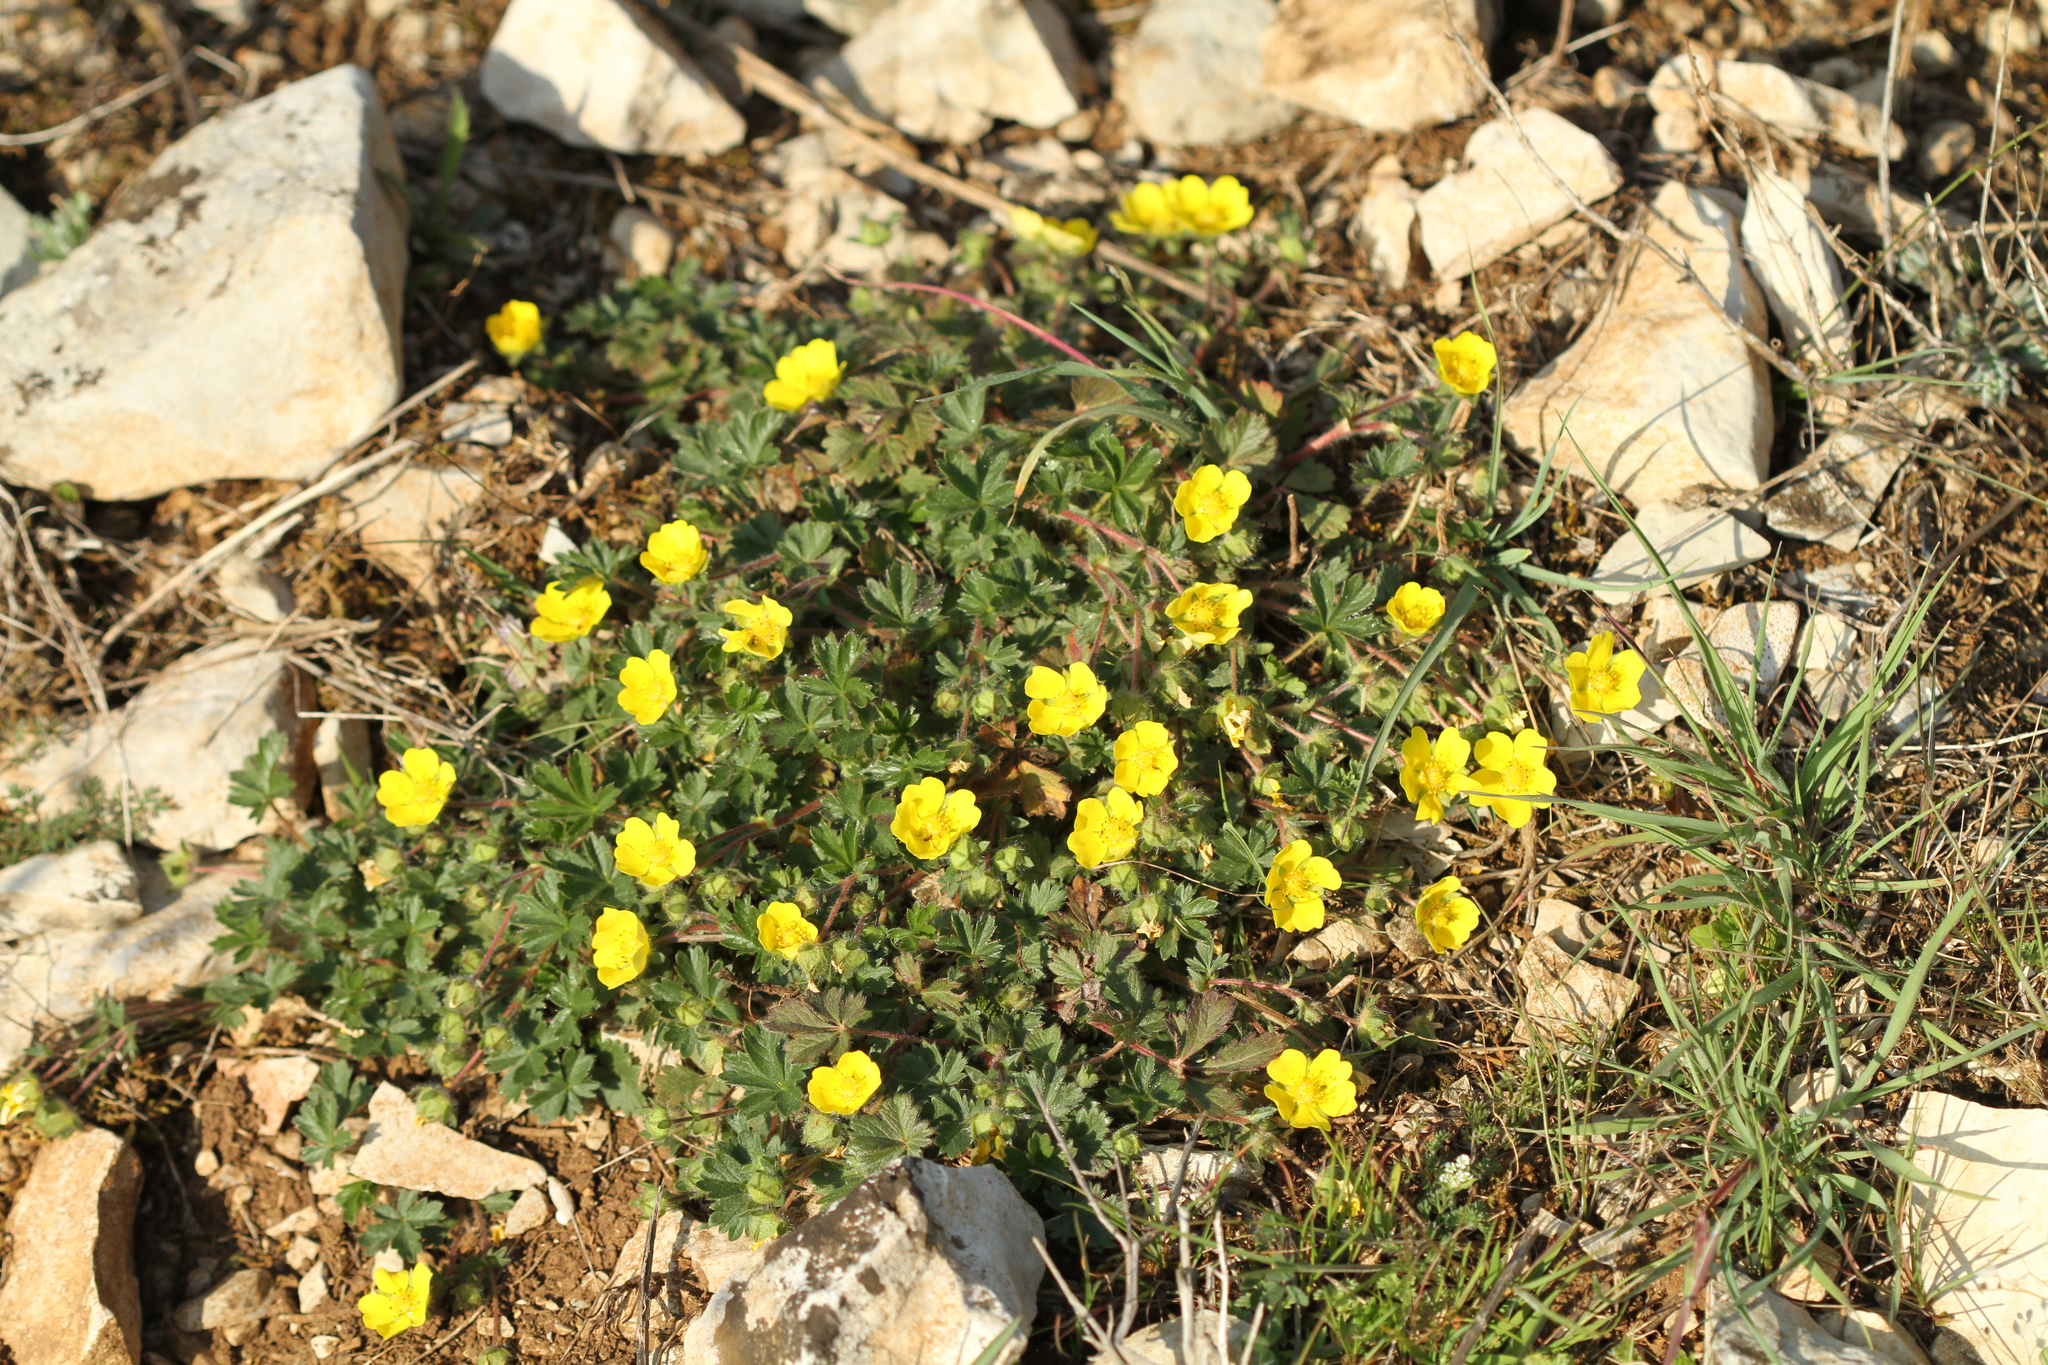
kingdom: Plantae
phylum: Tracheophyta
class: Magnoliopsida
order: Rosales
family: Rosaceae
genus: Potentilla
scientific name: Potentilla verna
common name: Spring cinquefoil
